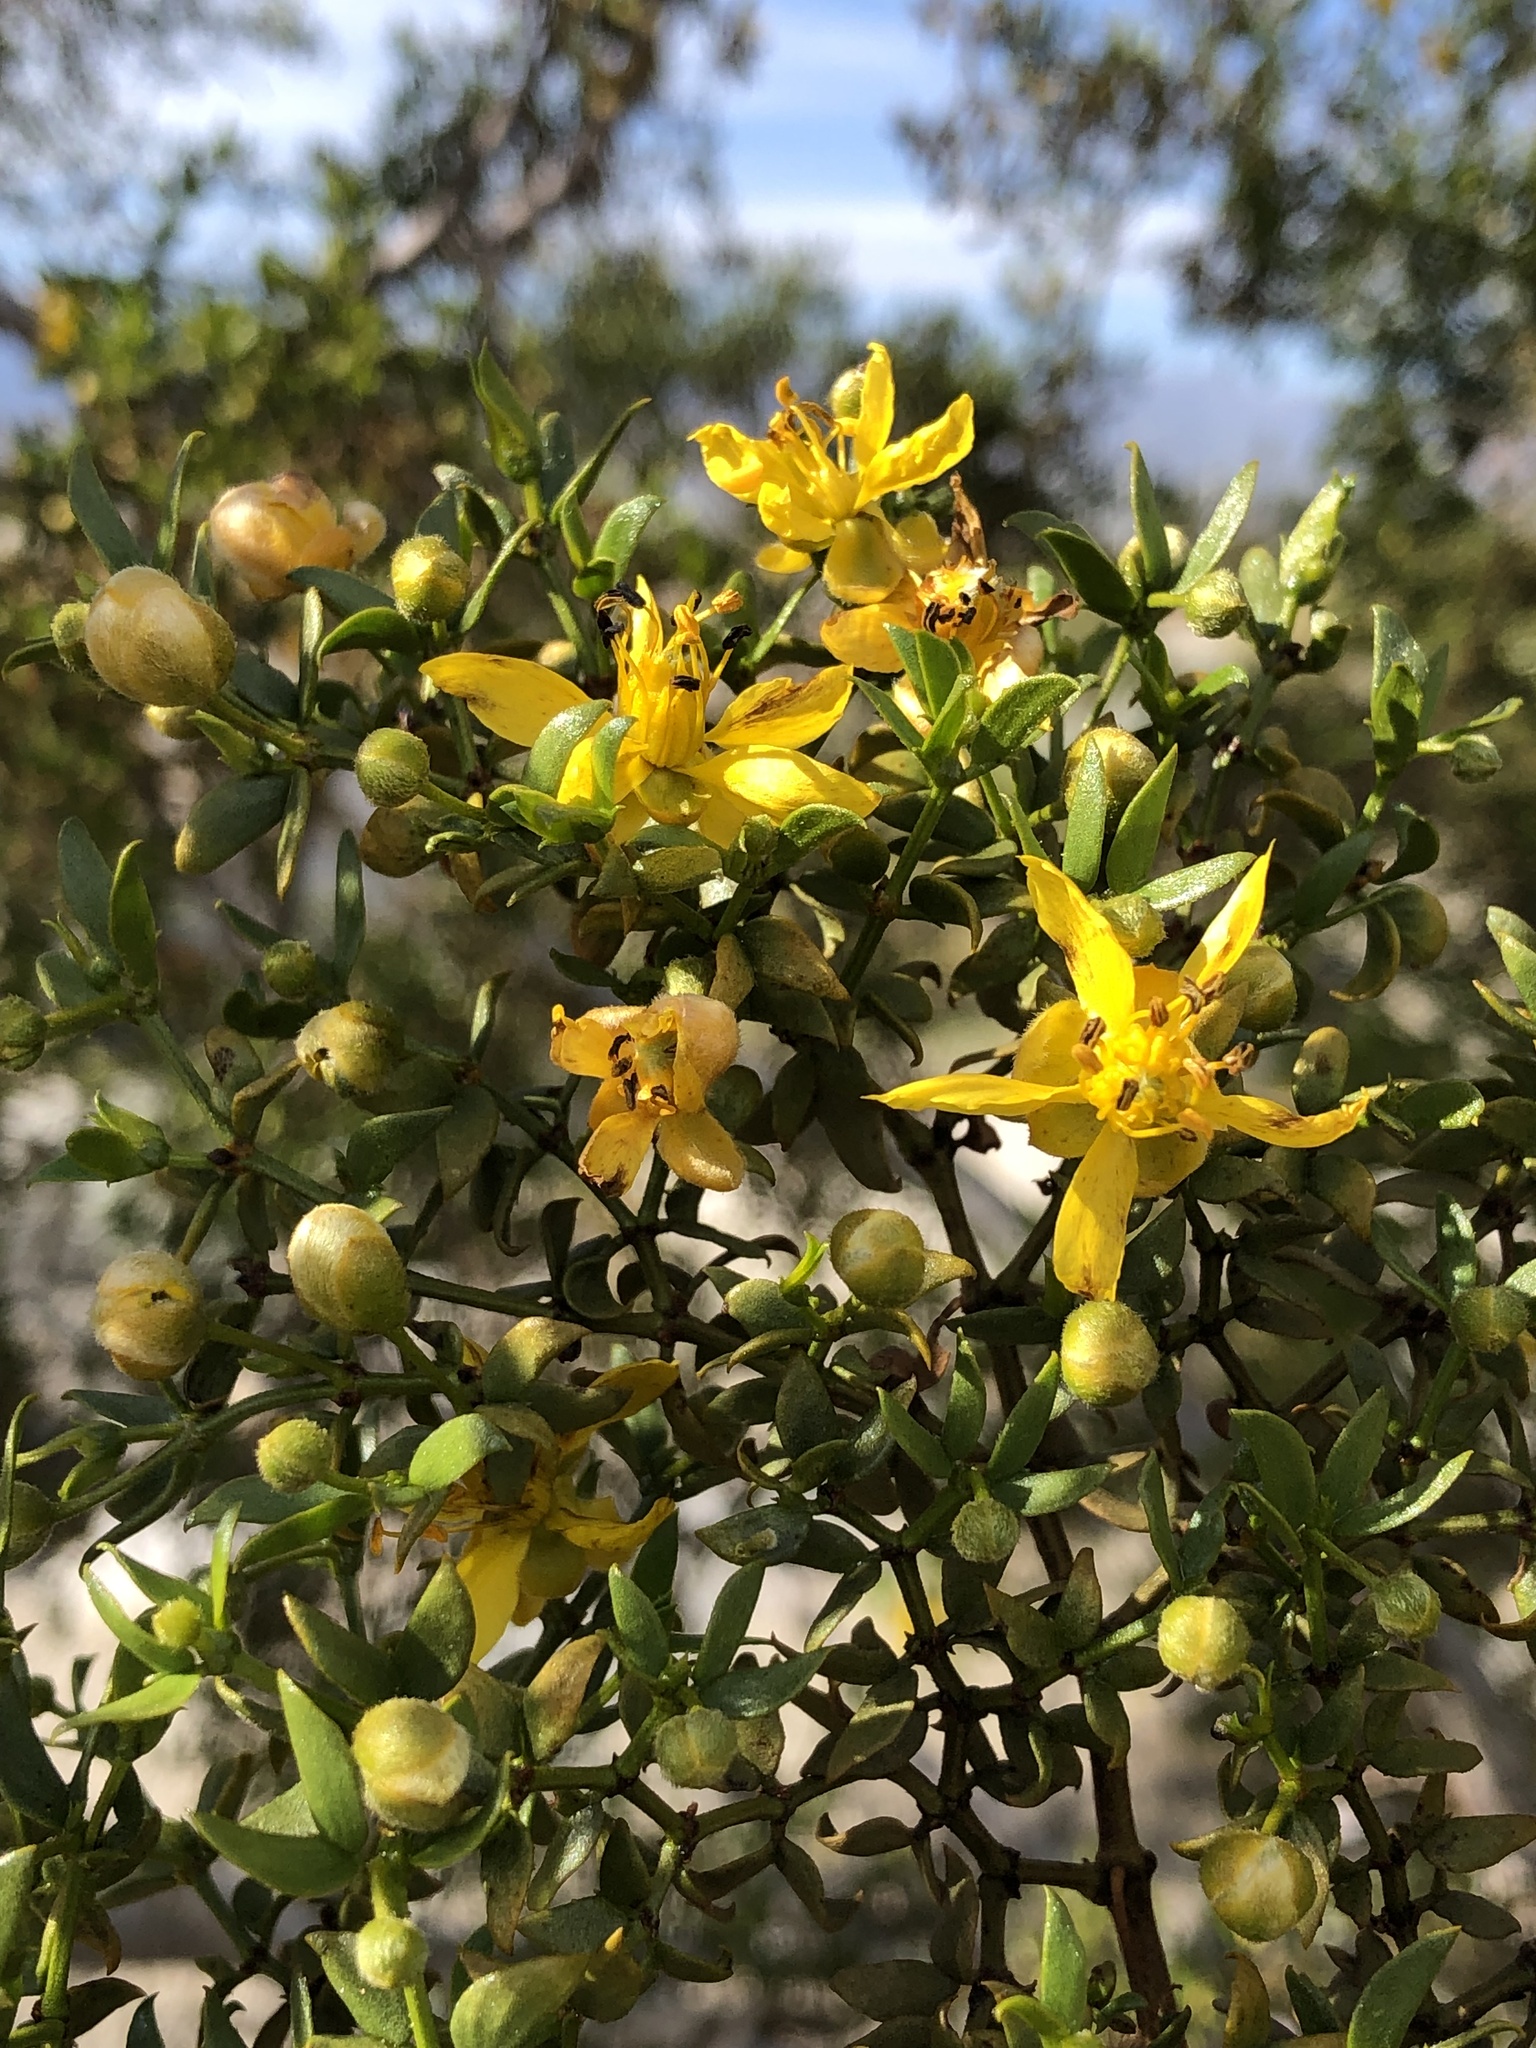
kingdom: Plantae
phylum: Tracheophyta
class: Magnoliopsida
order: Zygophyllales
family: Zygophyllaceae
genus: Larrea
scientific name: Larrea tridentata
